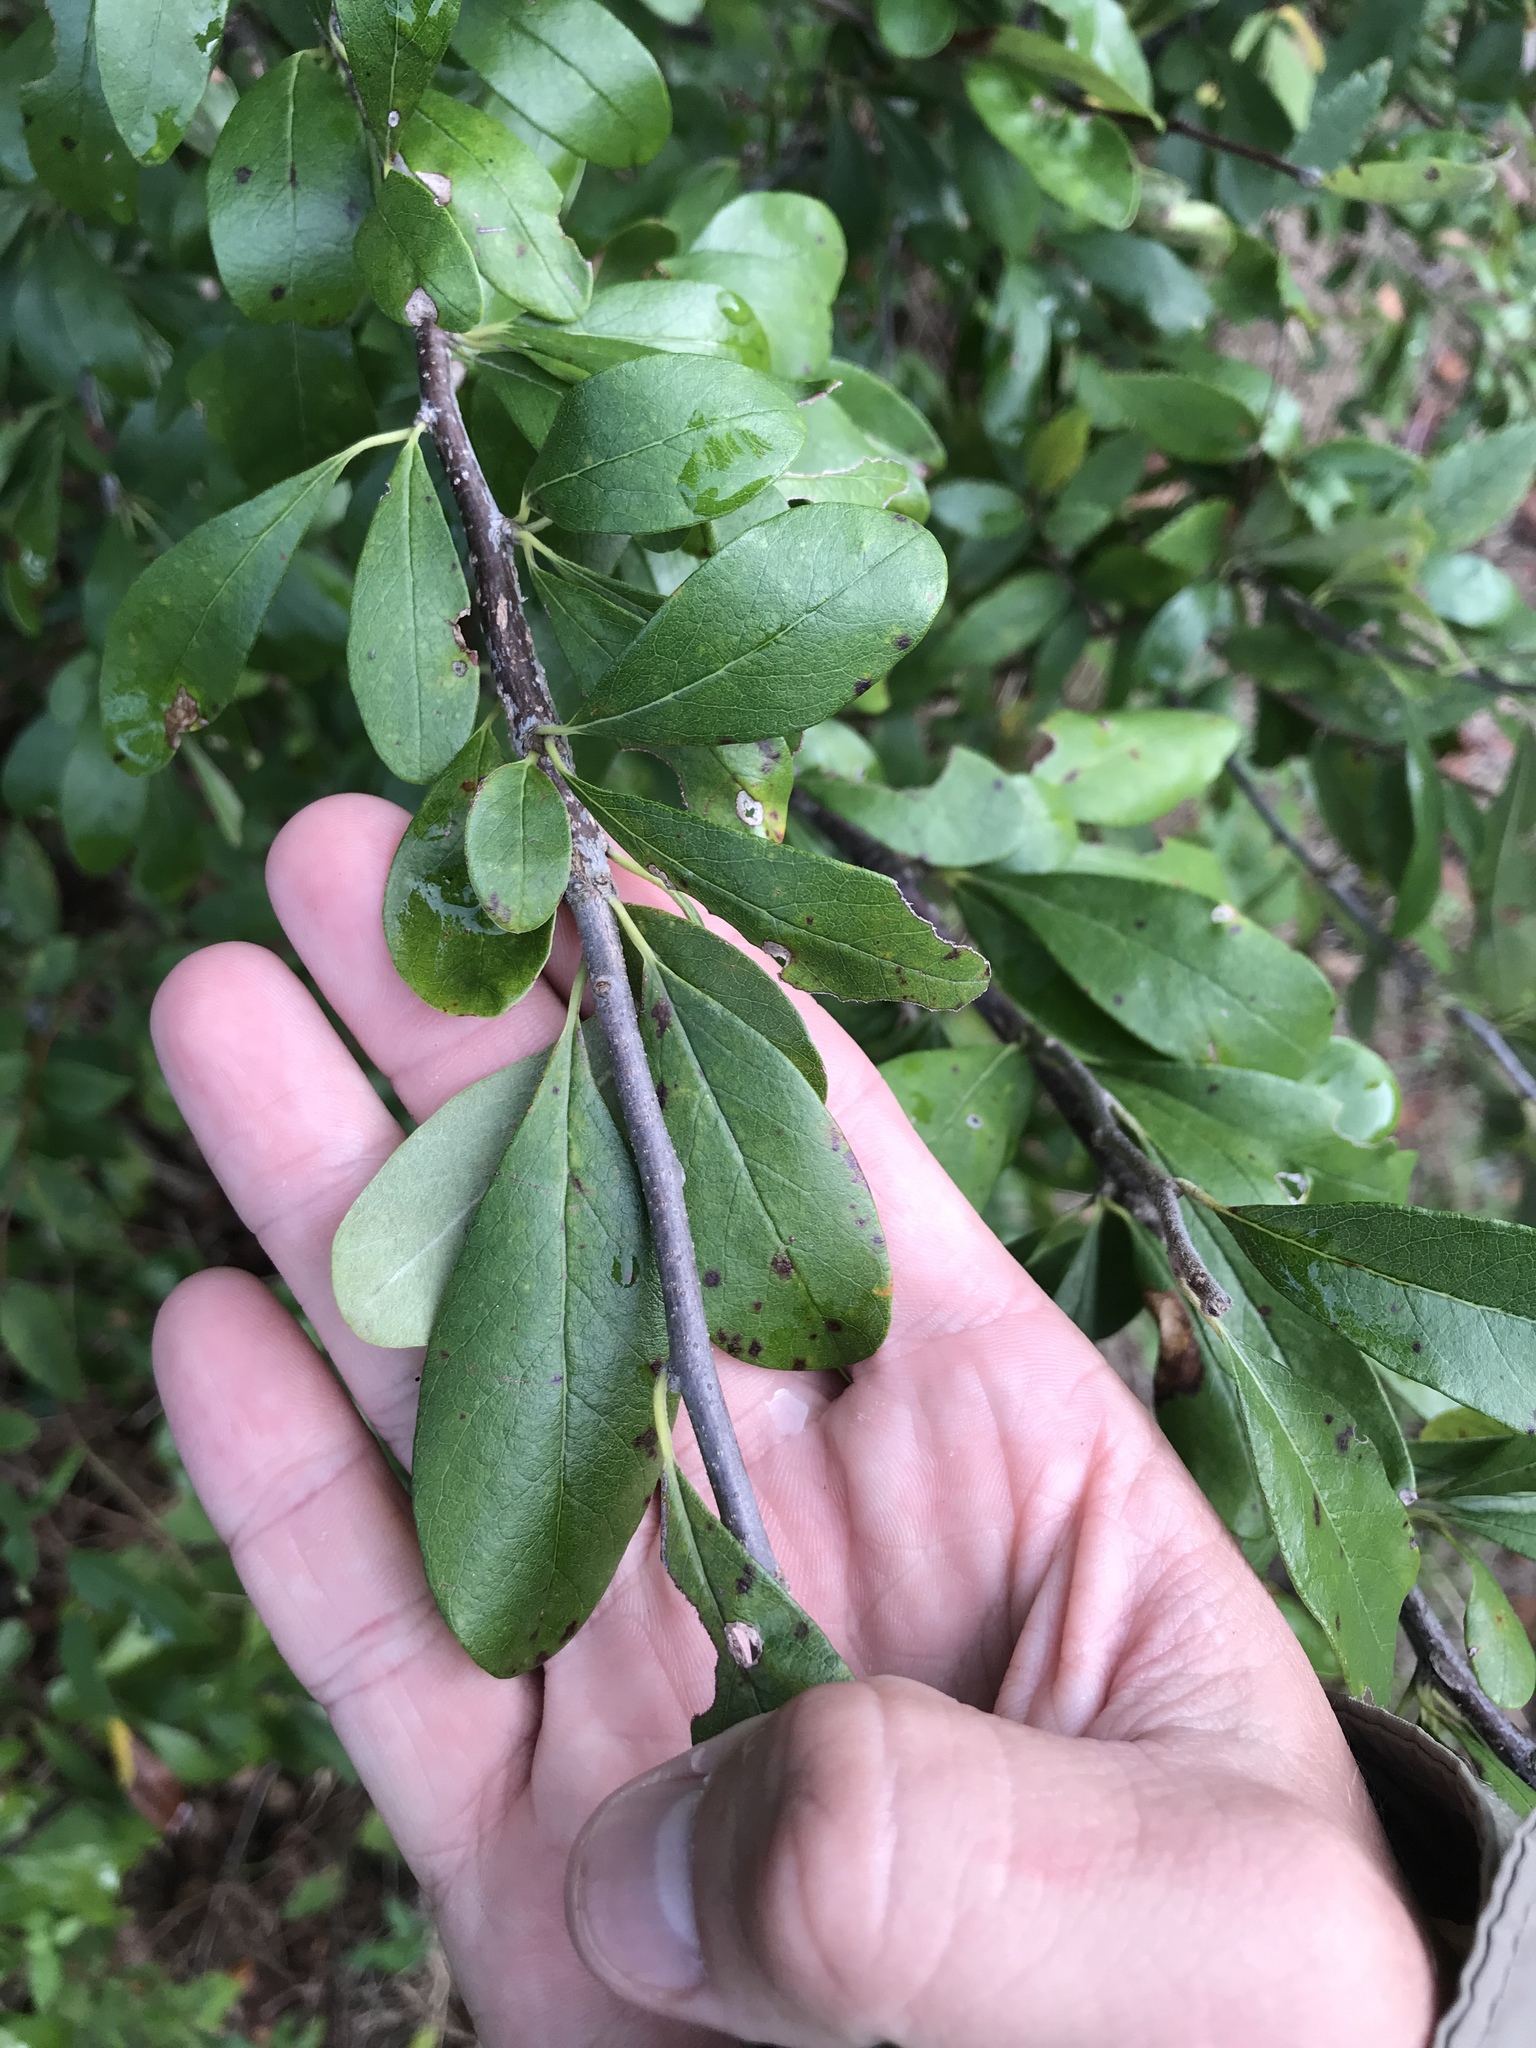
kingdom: Plantae
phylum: Tracheophyta
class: Magnoliopsida
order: Ericales
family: Sapotaceae
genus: Sideroxylon
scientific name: Sideroxylon lanuginosum
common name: Chittamwood
